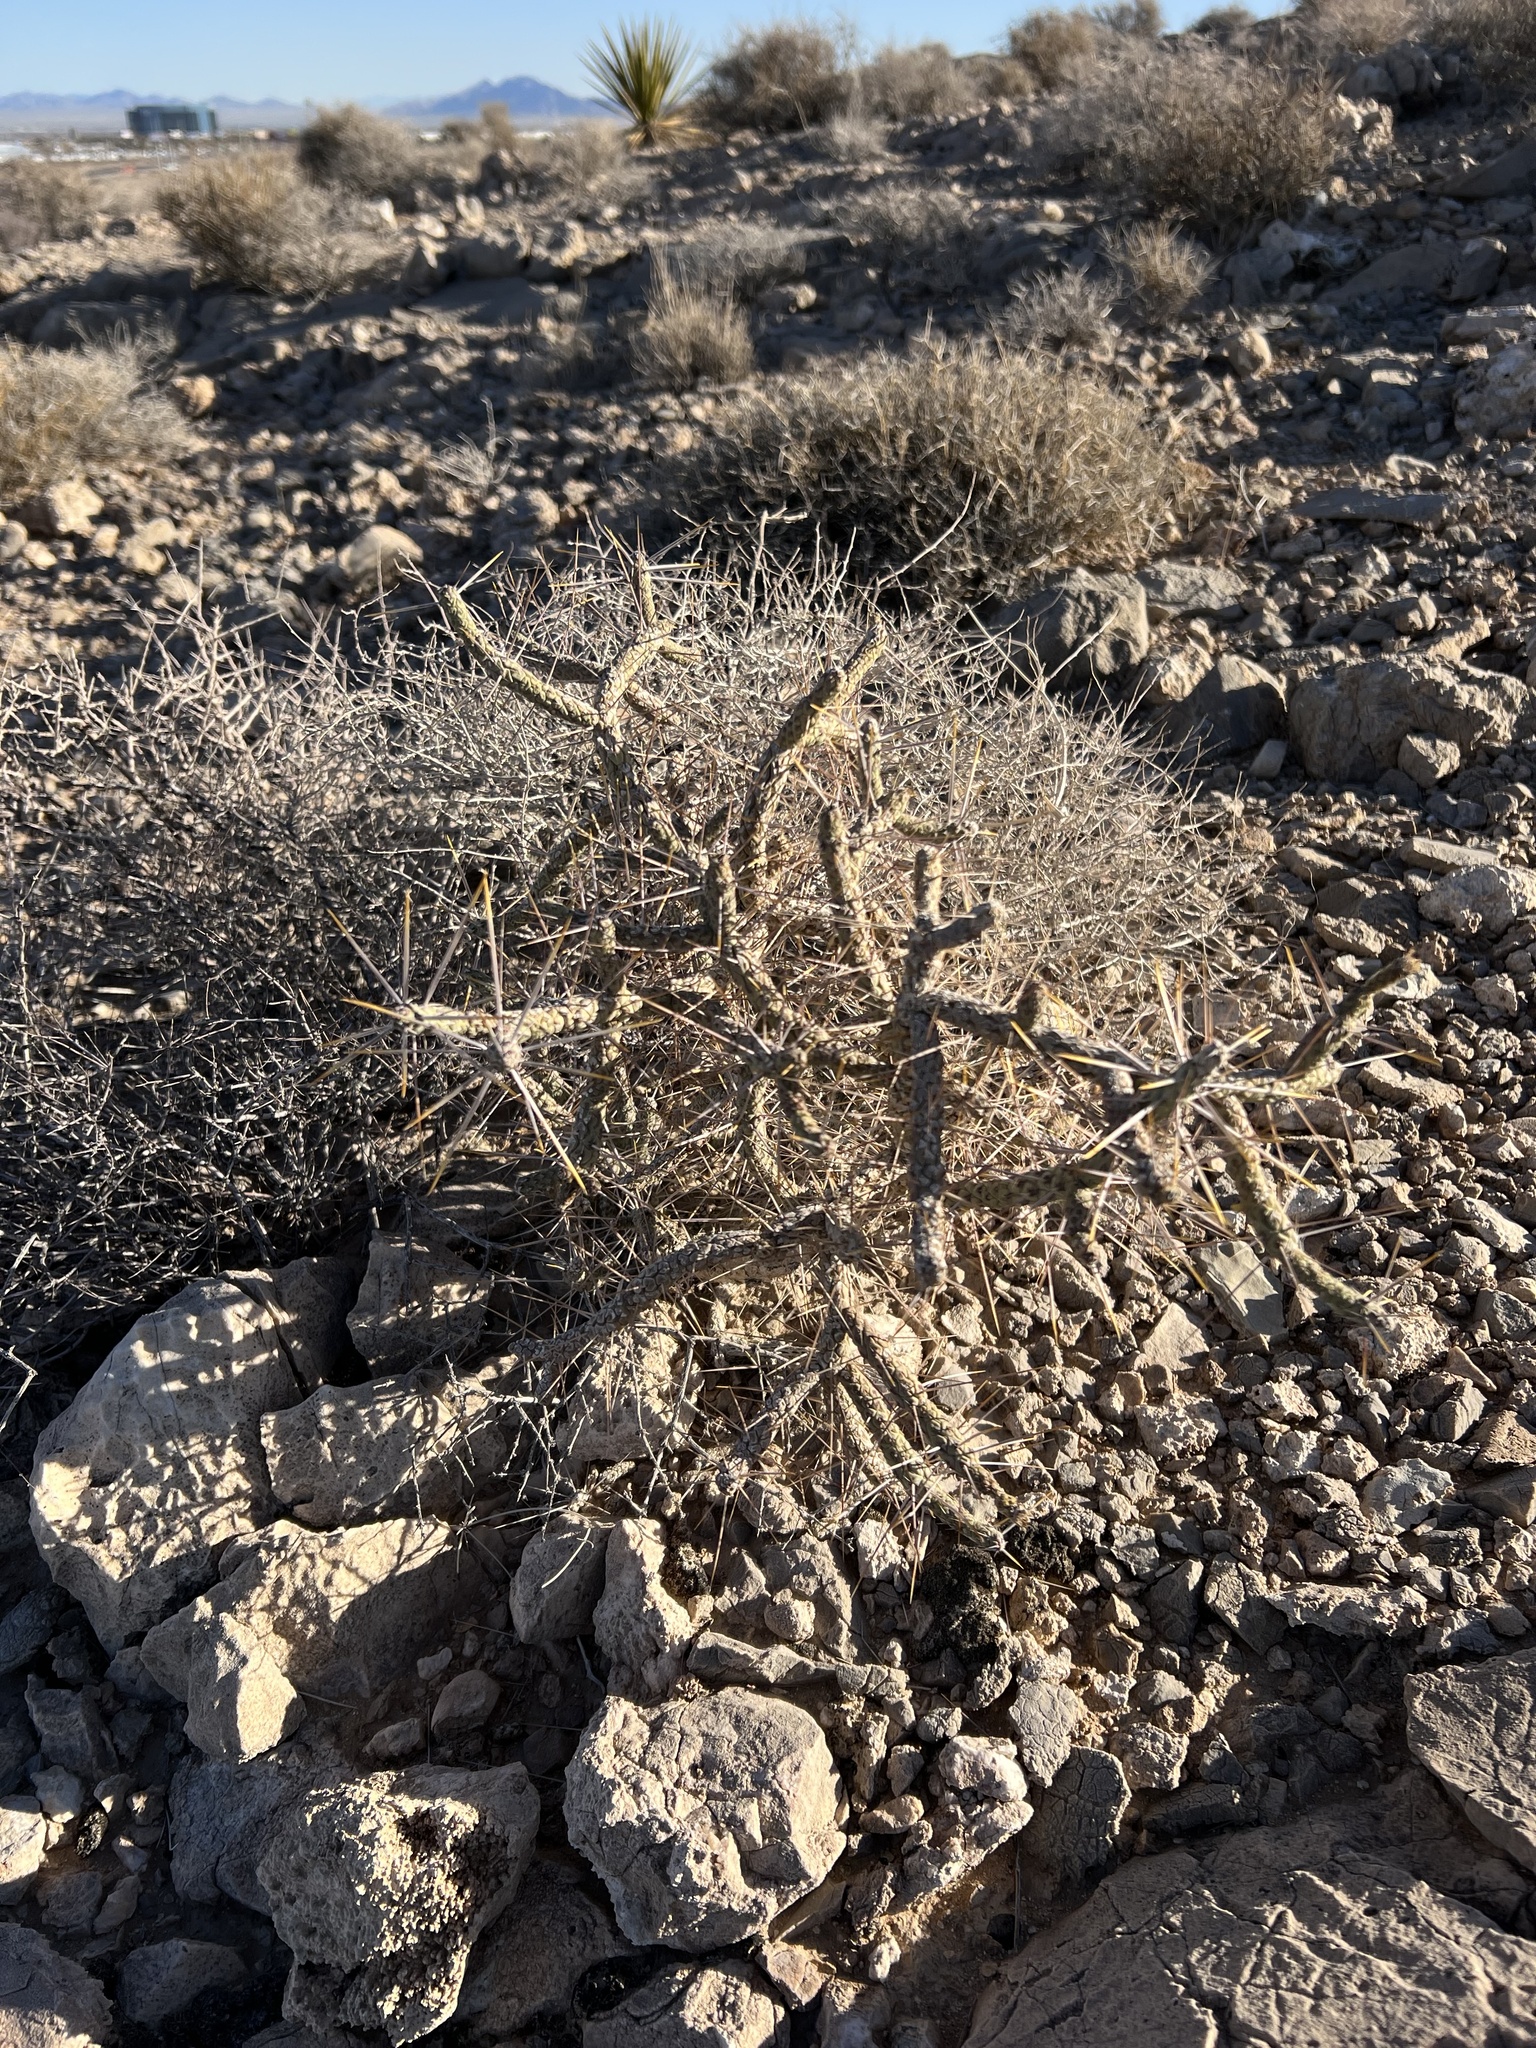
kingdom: Plantae
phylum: Tracheophyta
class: Magnoliopsida
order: Caryophyllales
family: Cactaceae
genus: Cylindropuntia
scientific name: Cylindropuntia ramosissima
